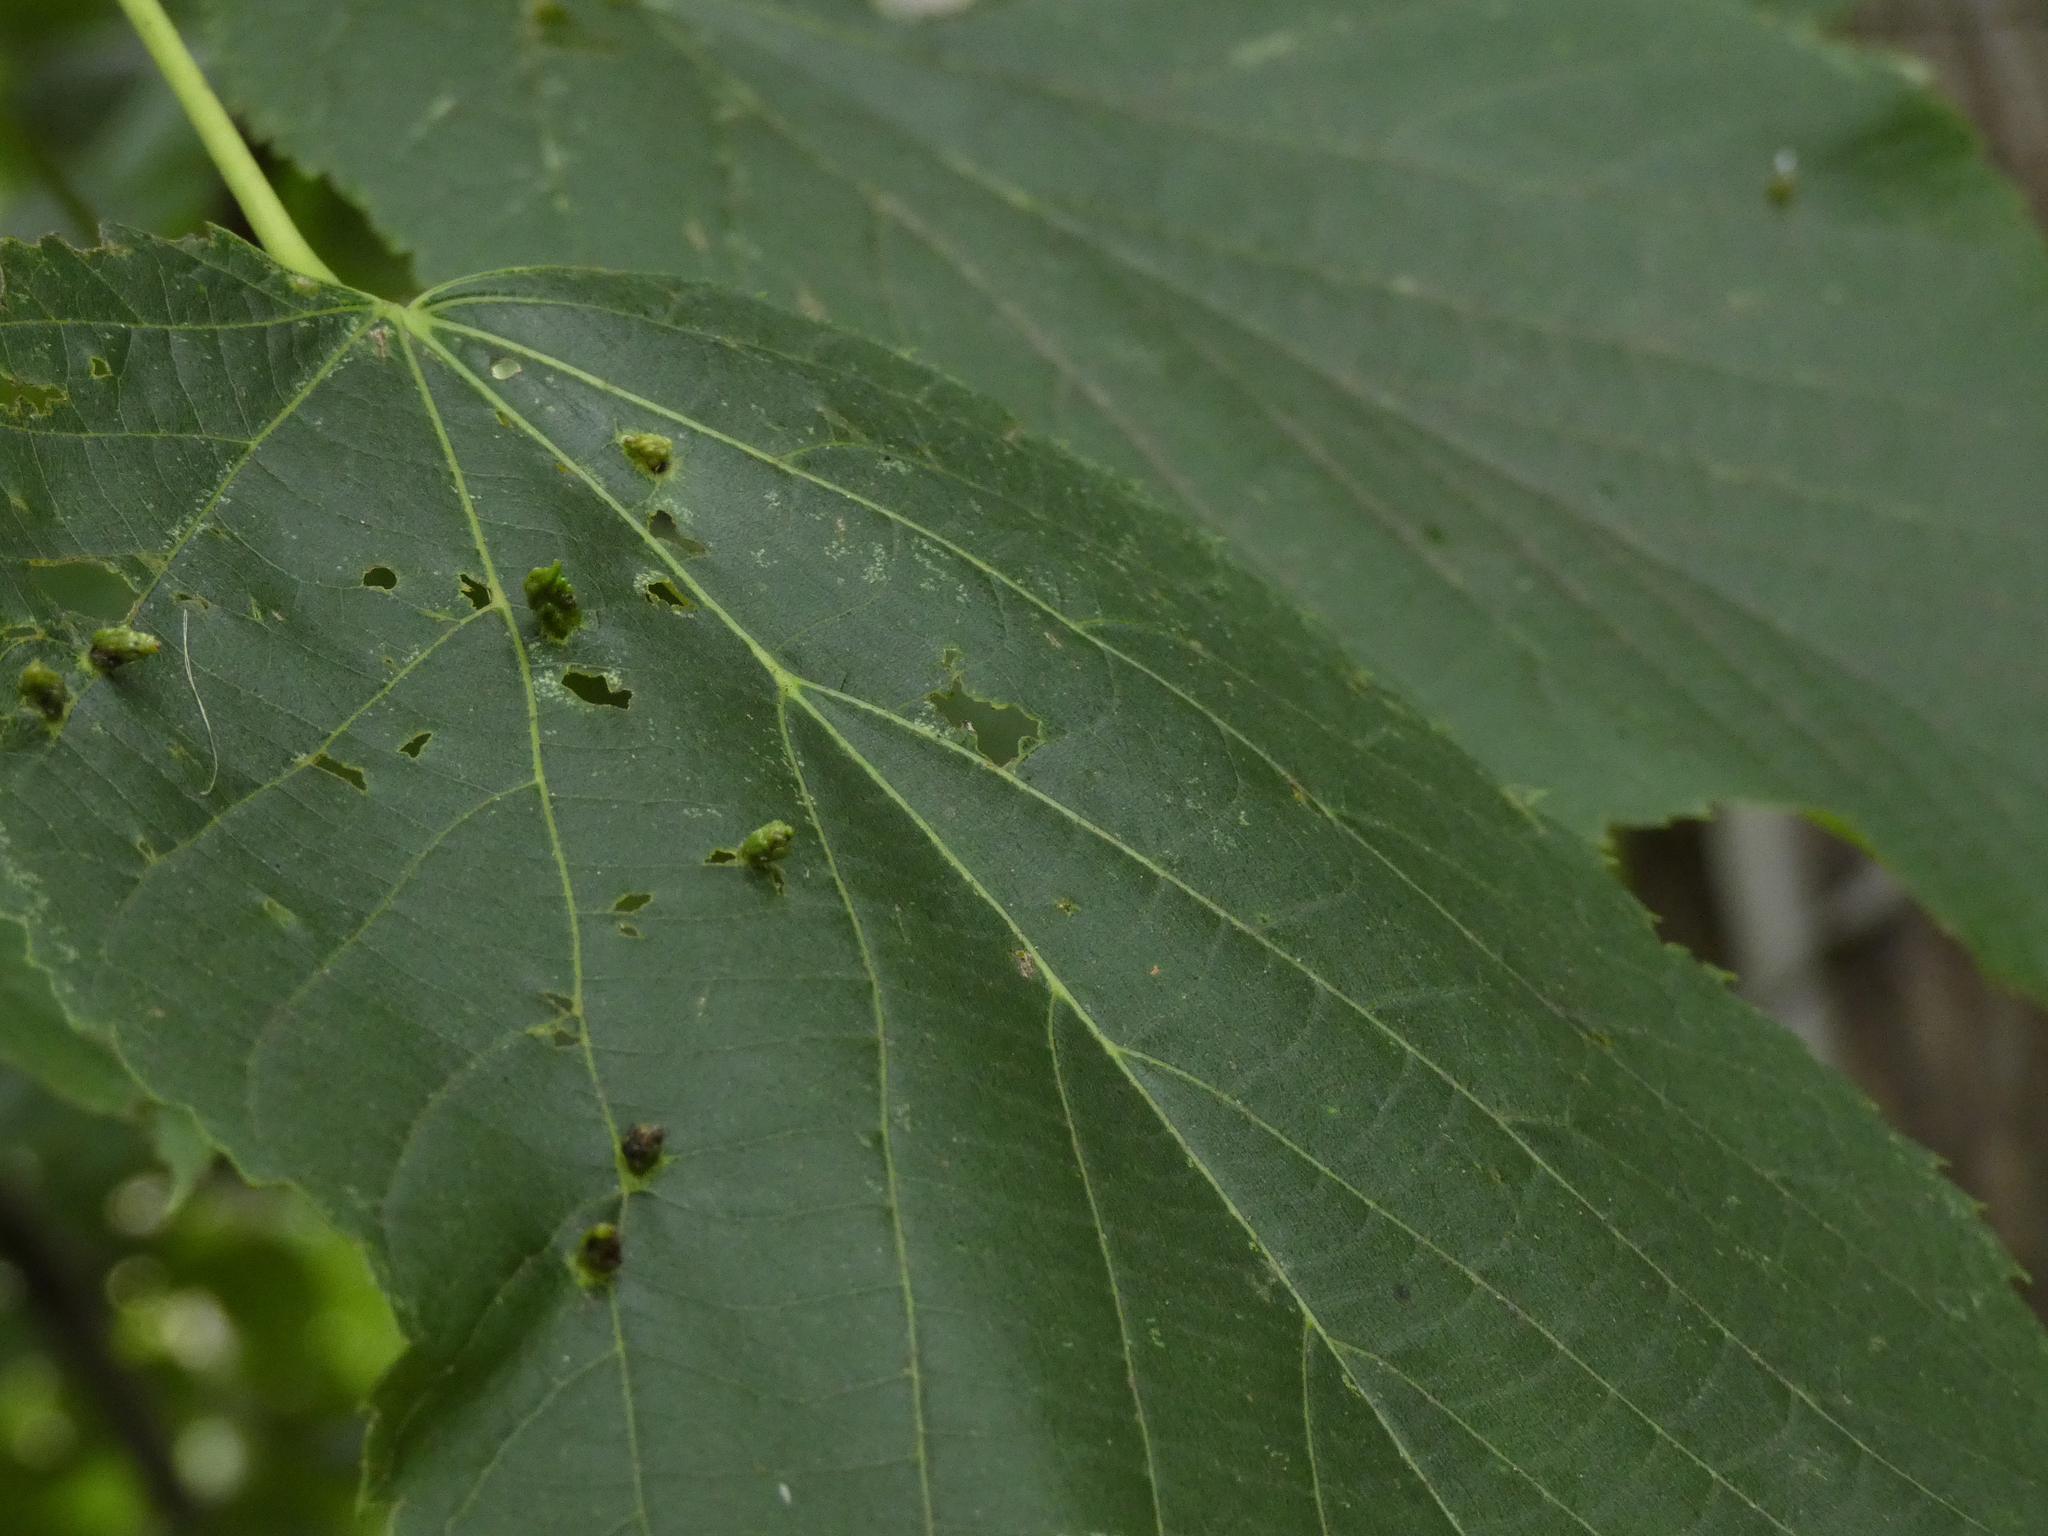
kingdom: Animalia
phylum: Arthropoda
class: Arachnida
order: Trombidiformes
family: Eriophyidae
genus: Eriophyes
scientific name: Eriophyes tiliae
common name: Red nail gall mite
